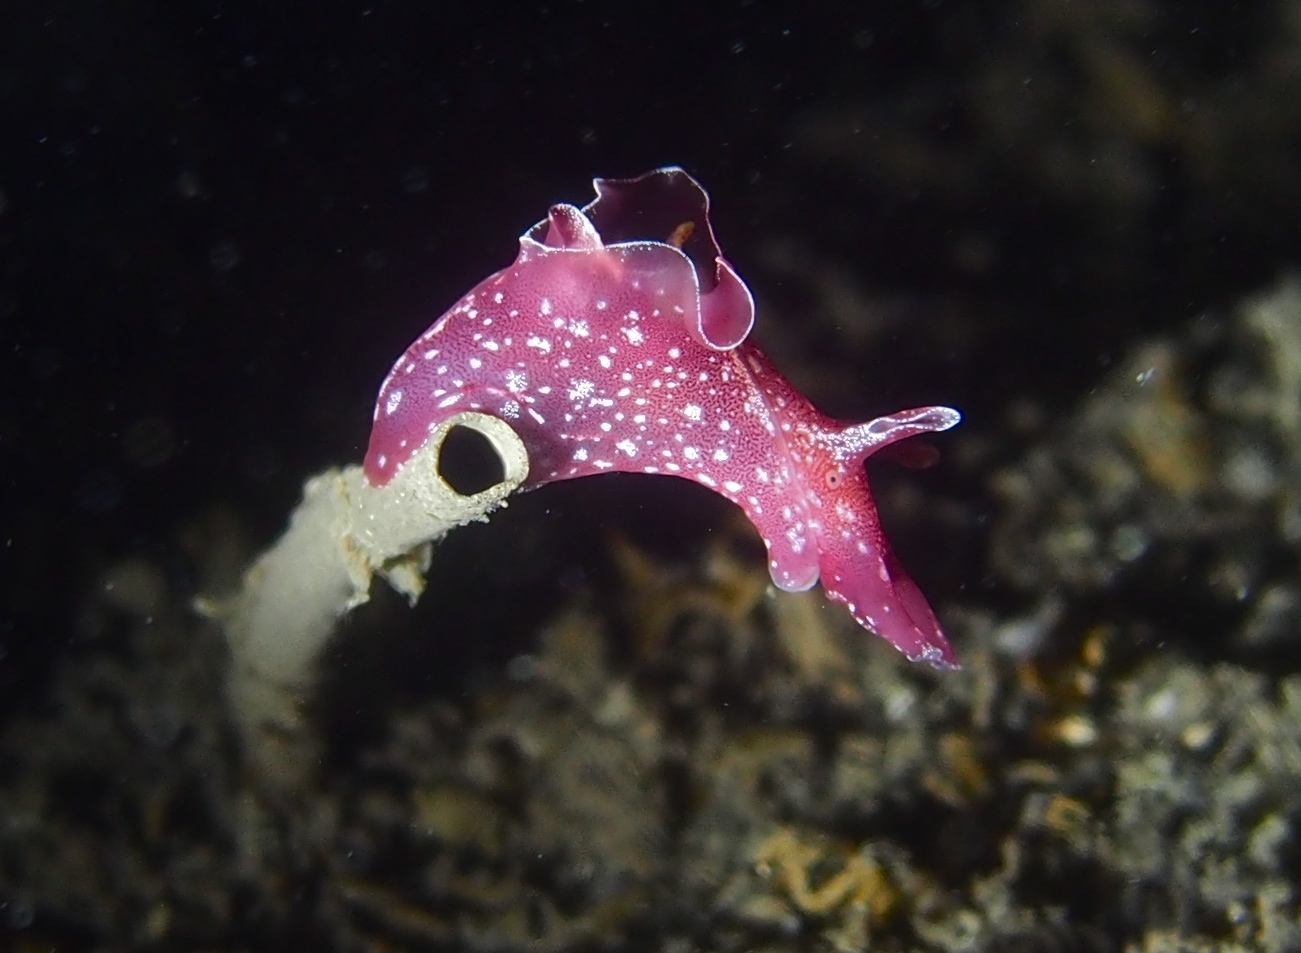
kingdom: Animalia
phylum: Mollusca
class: Gastropoda
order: Aplysiida
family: Aplysiidae
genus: Aplysia
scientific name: Aplysia punctata
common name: Common sea hare
